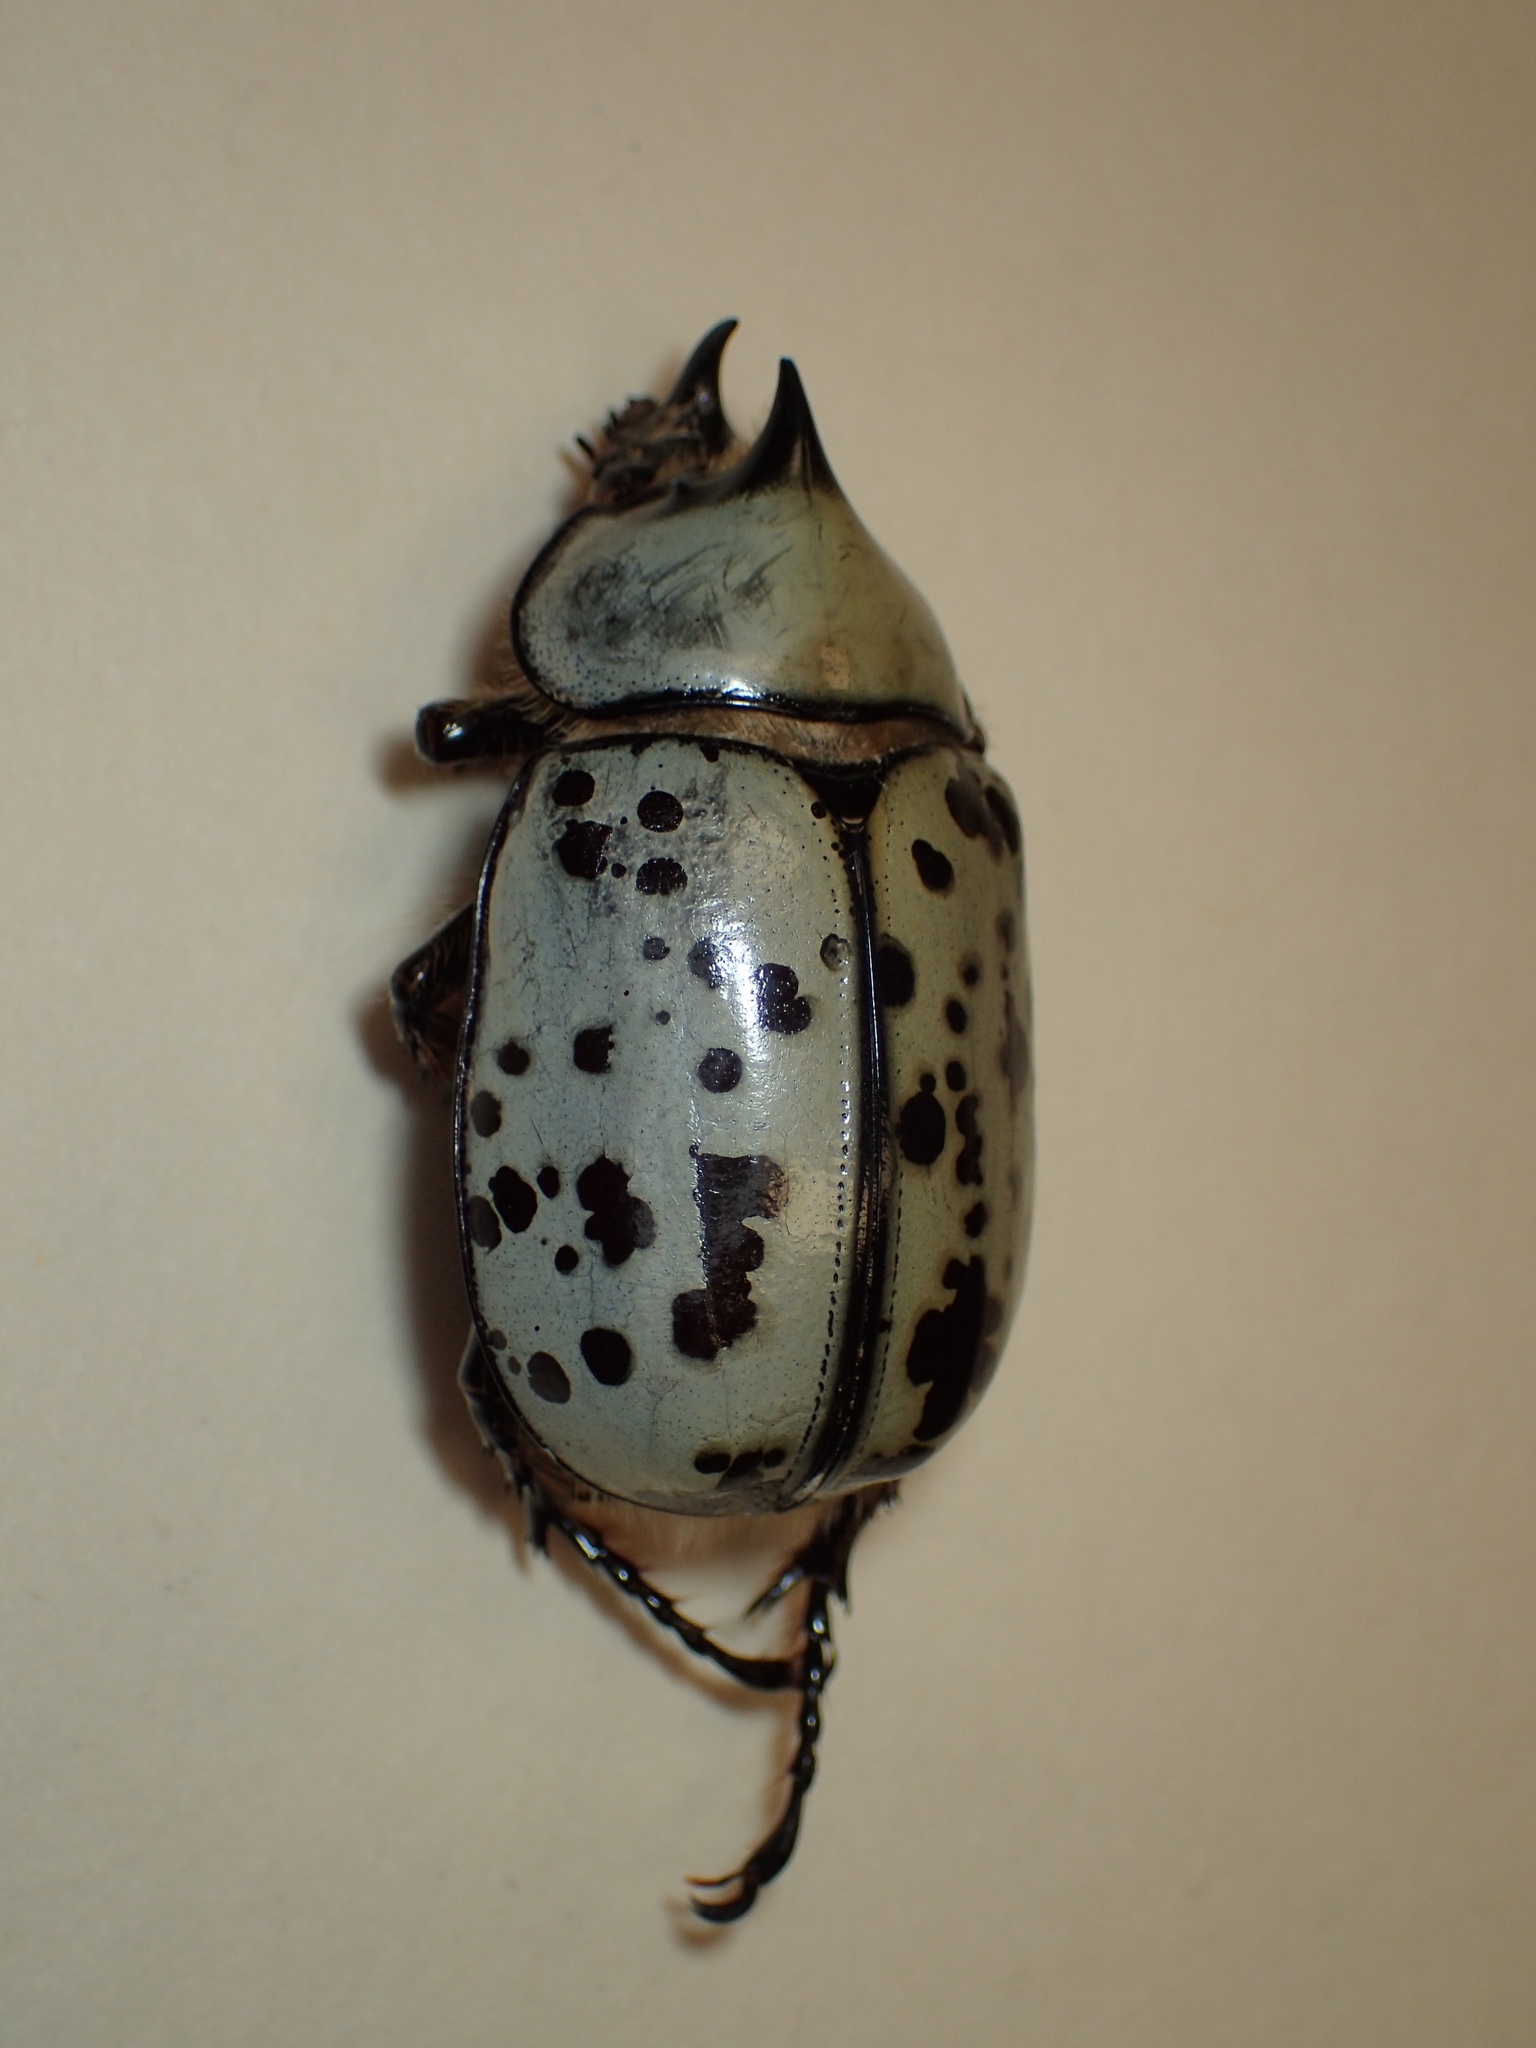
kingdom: Animalia
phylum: Arthropoda
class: Insecta
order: Coleoptera
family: Scarabaeidae
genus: Dynastes
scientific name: Dynastes tityus
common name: Eastern hercules beetle
